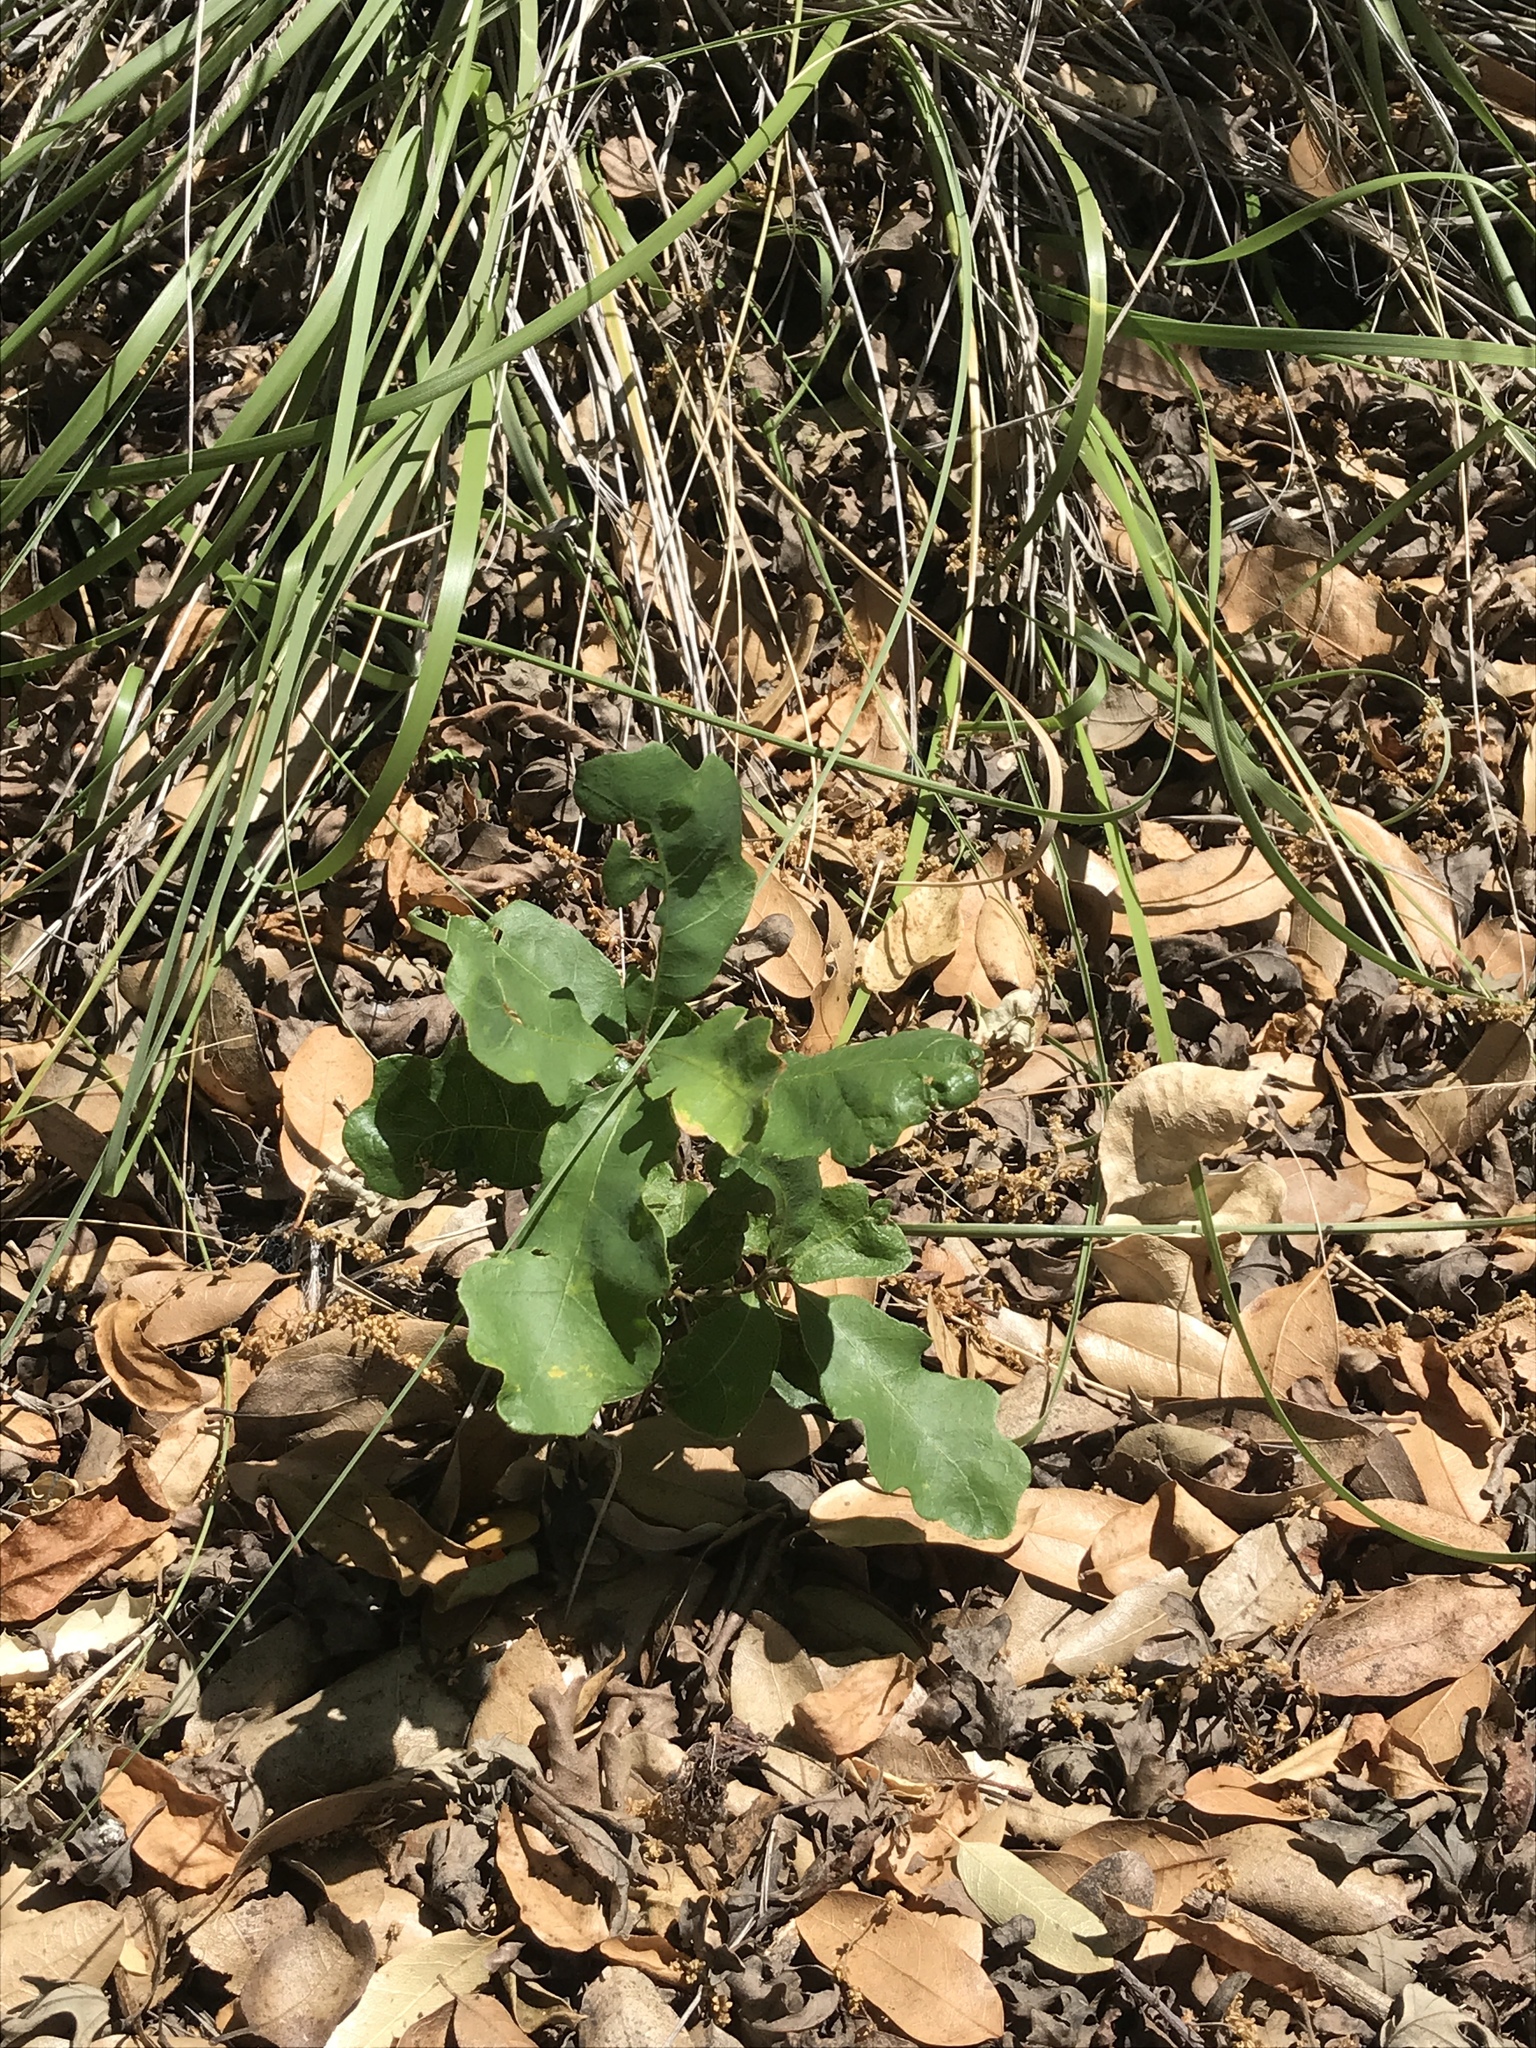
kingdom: Plantae
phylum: Tracheophyta
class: Magnoliopsida
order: Fagales
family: Fagaceae
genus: Quercus
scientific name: Quercus lobata
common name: Valley oak
